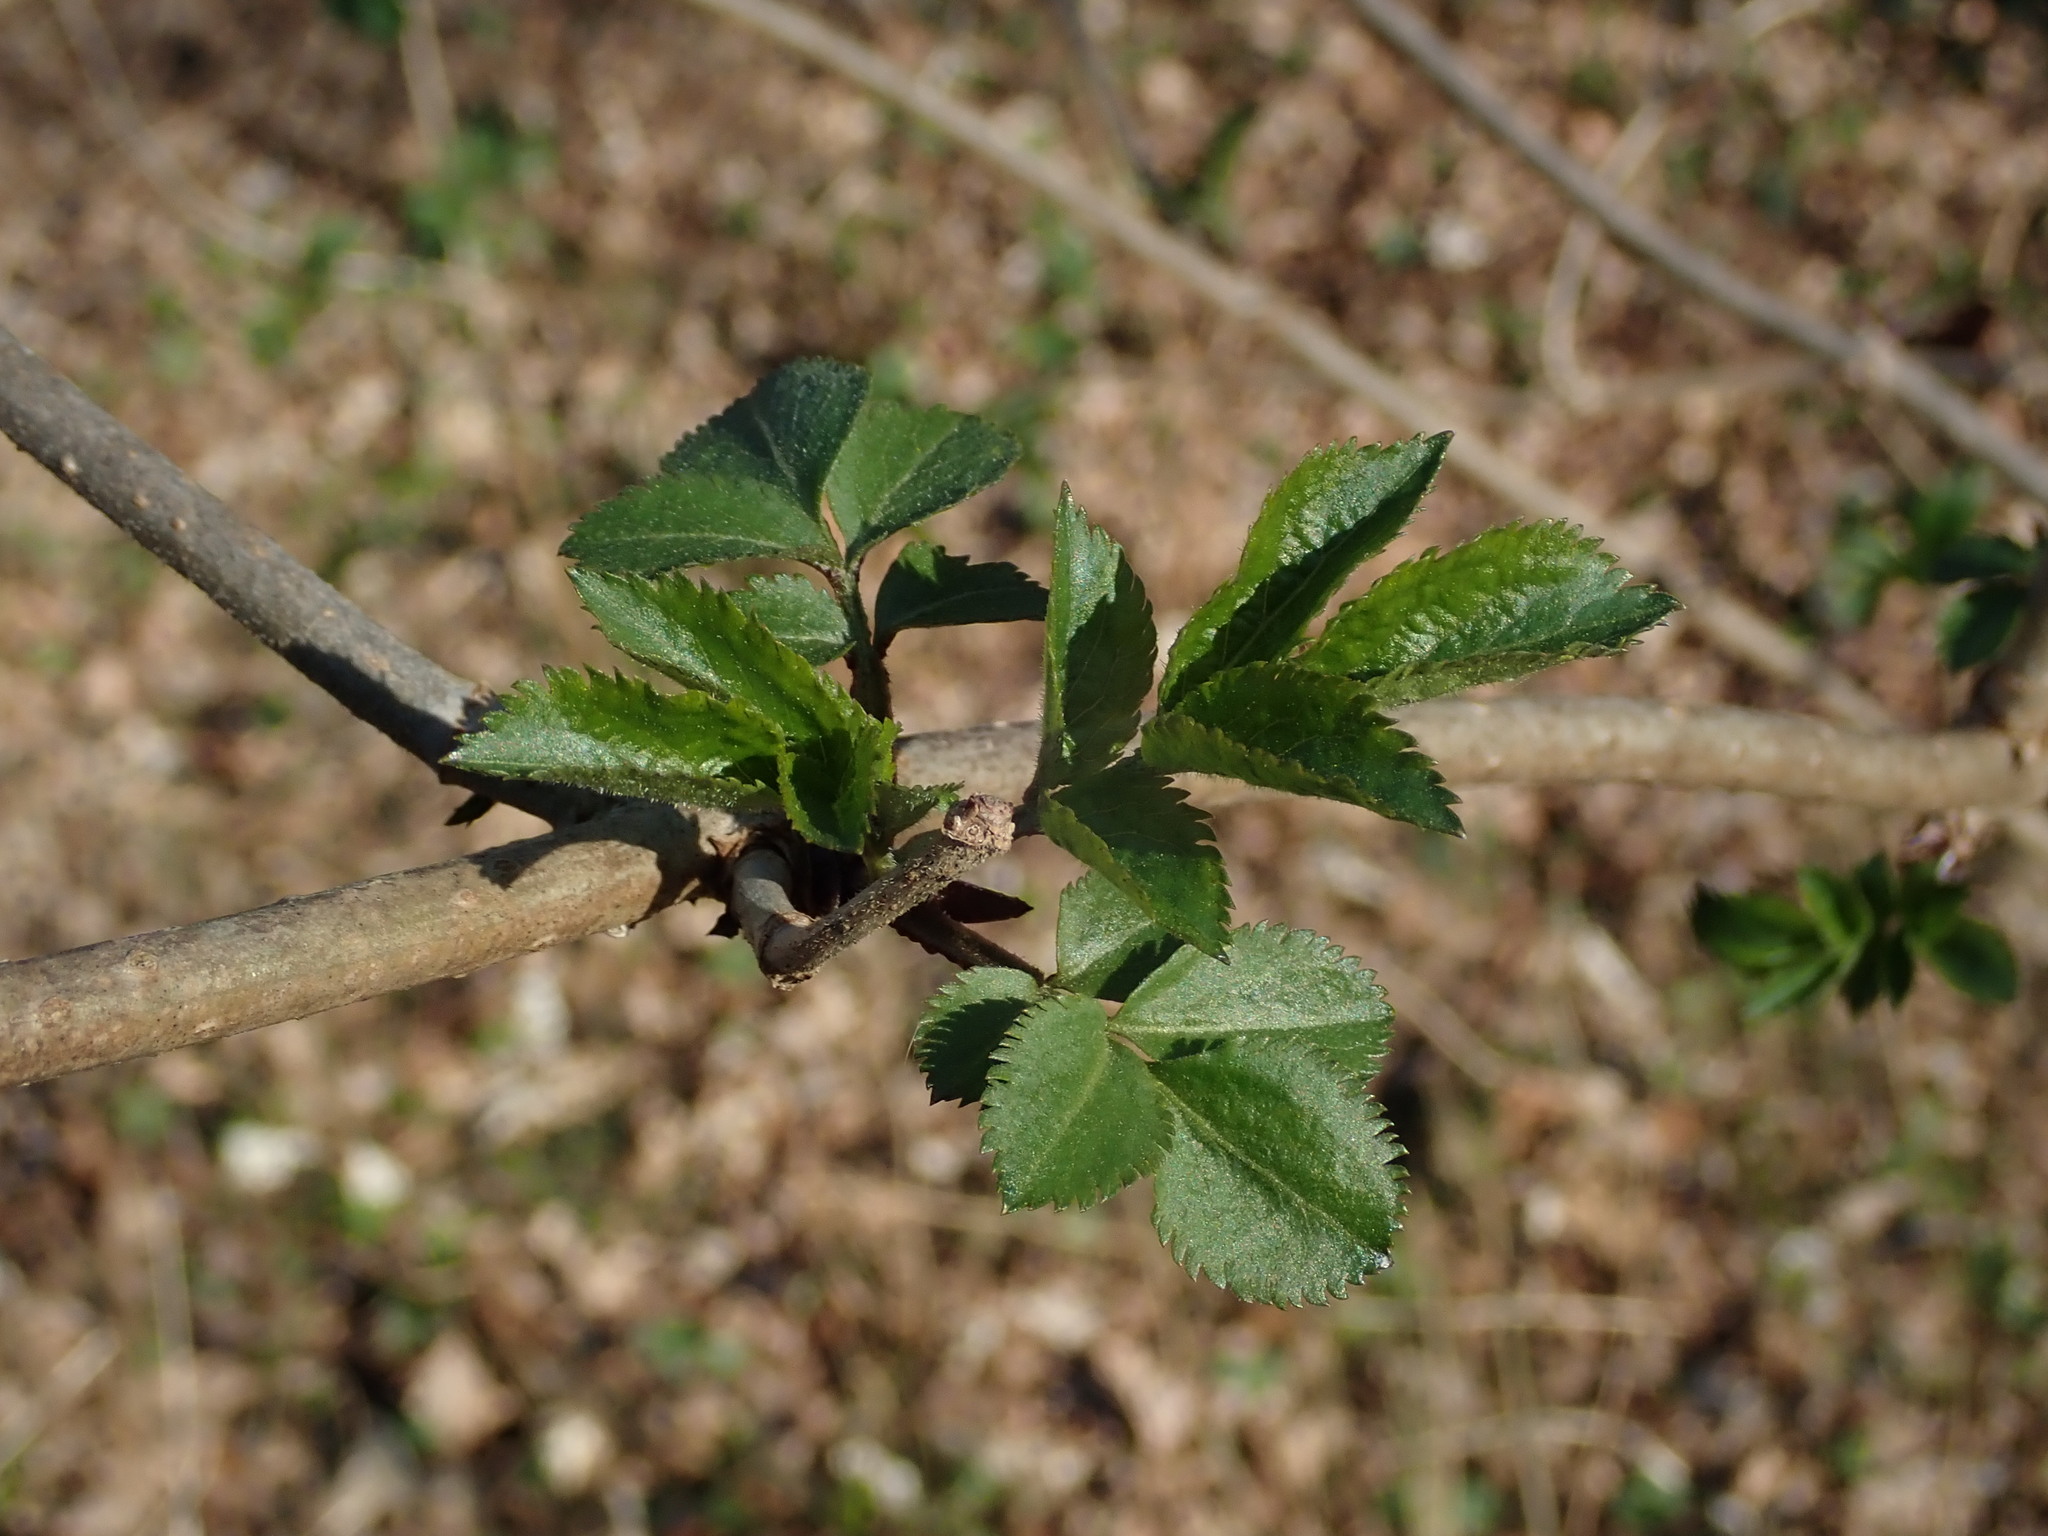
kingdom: Plantae
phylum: Tracheophyta
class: Magnoliopsida
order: Dipsacales
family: Viburnaceae
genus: Sambucus
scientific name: Sambucus nigra
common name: Elder
